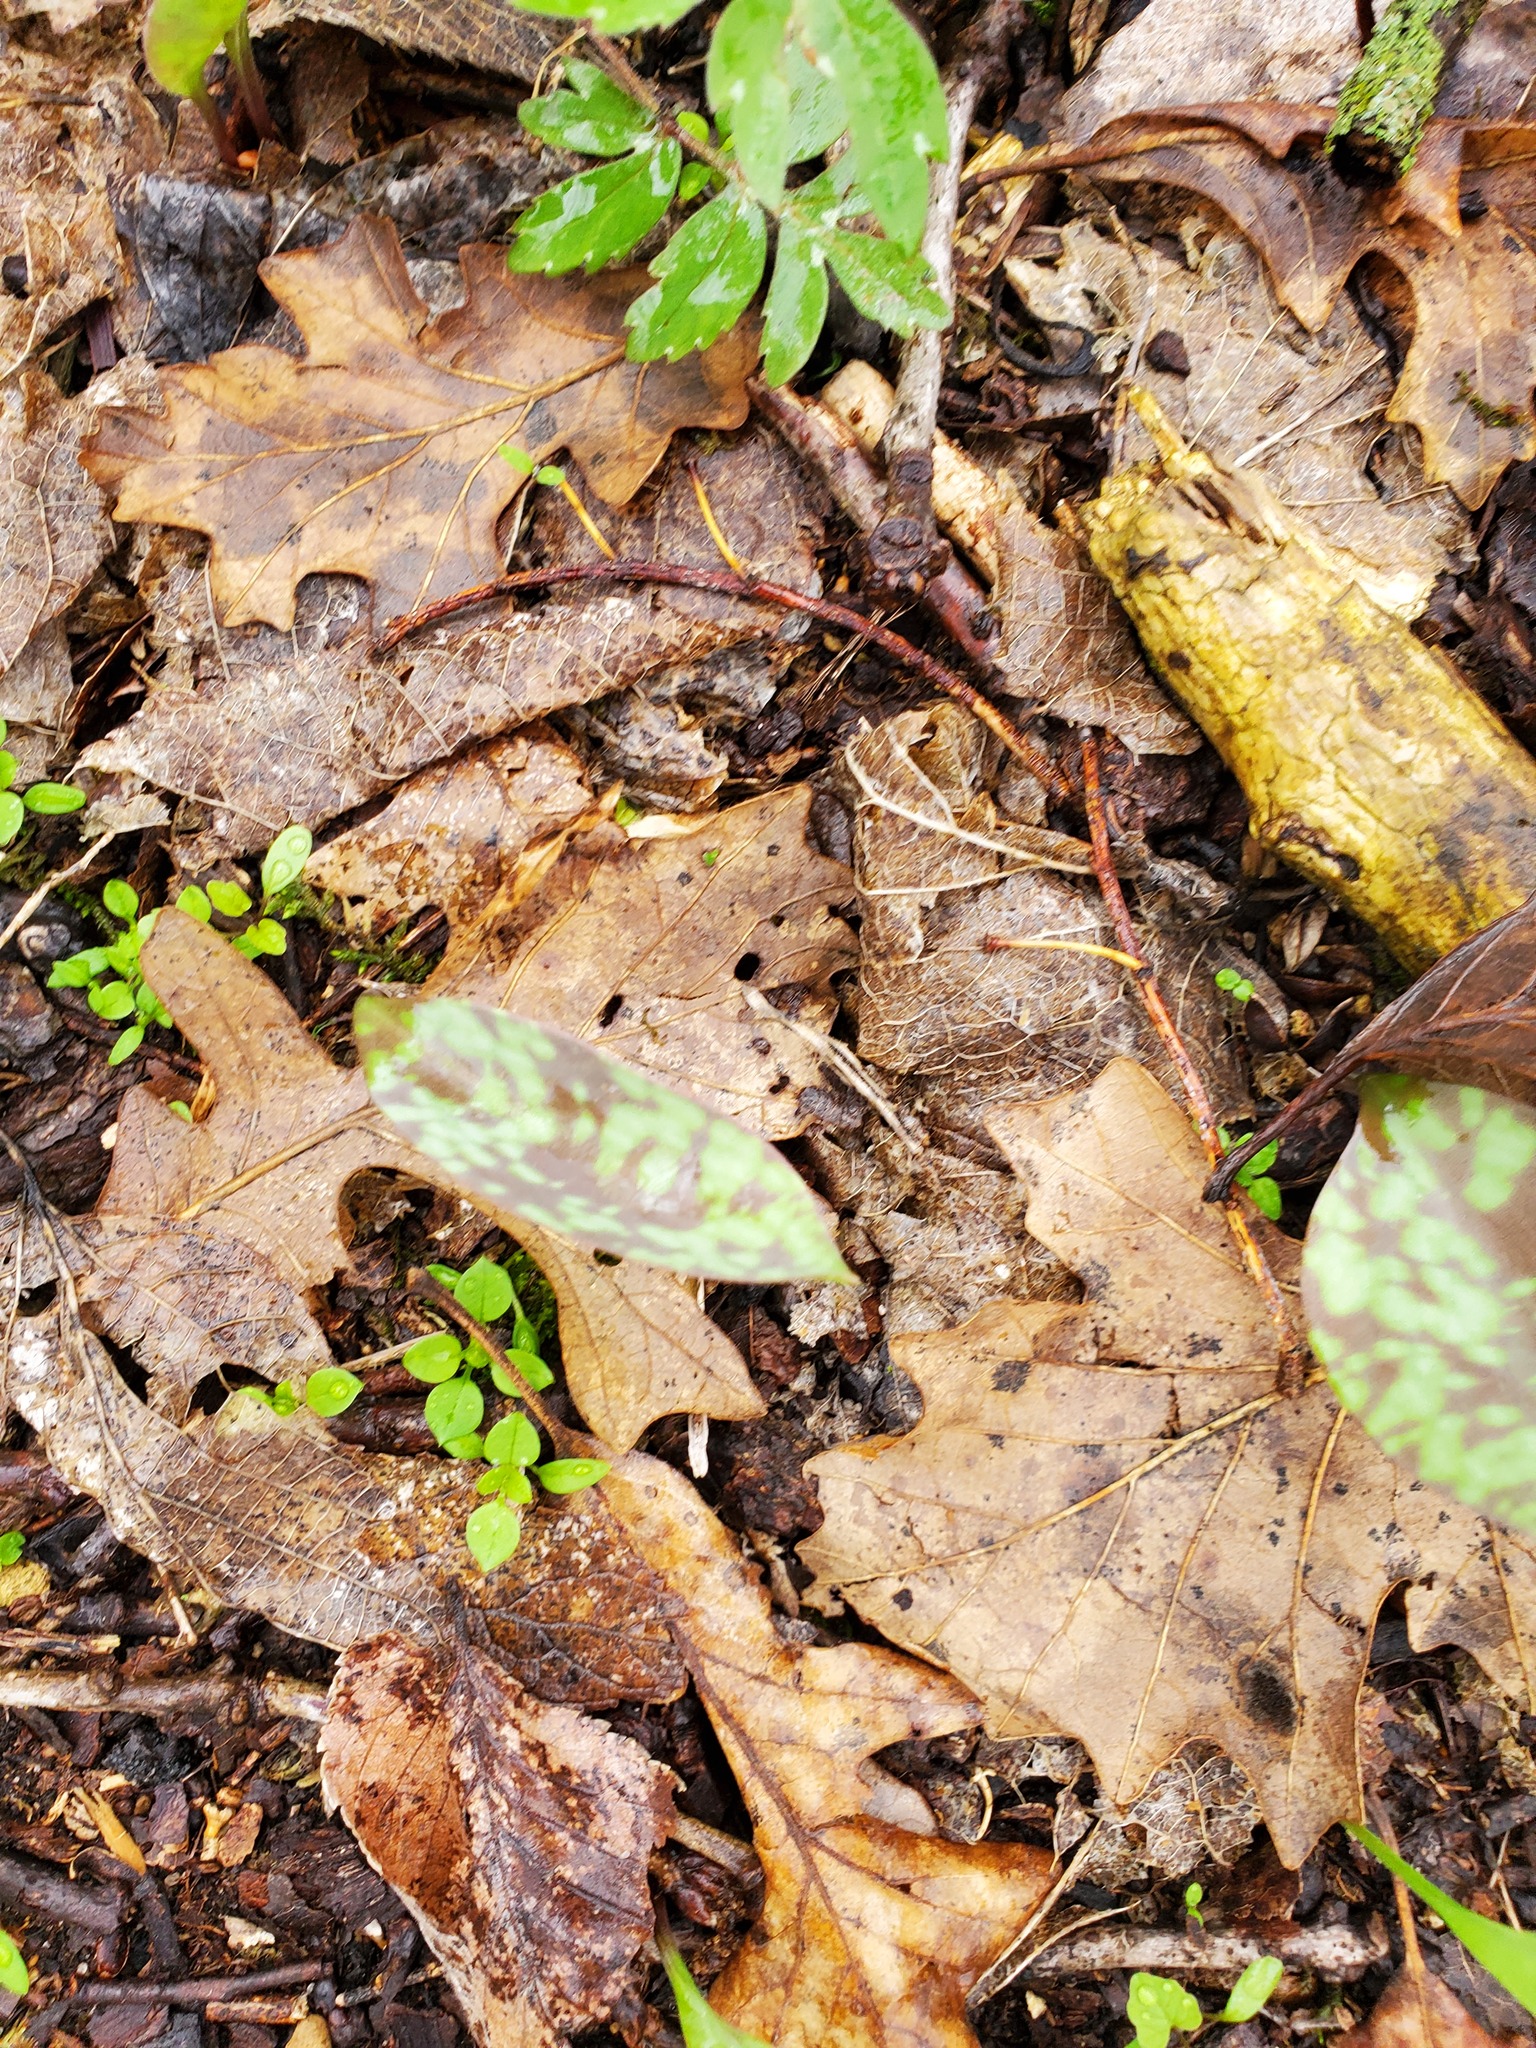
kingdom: Plantae
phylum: Tracheophyta
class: Liliopsida
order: Liliales
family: Liliaceae
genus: Erythronium
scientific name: Erythronium albidum
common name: White trout-lily
